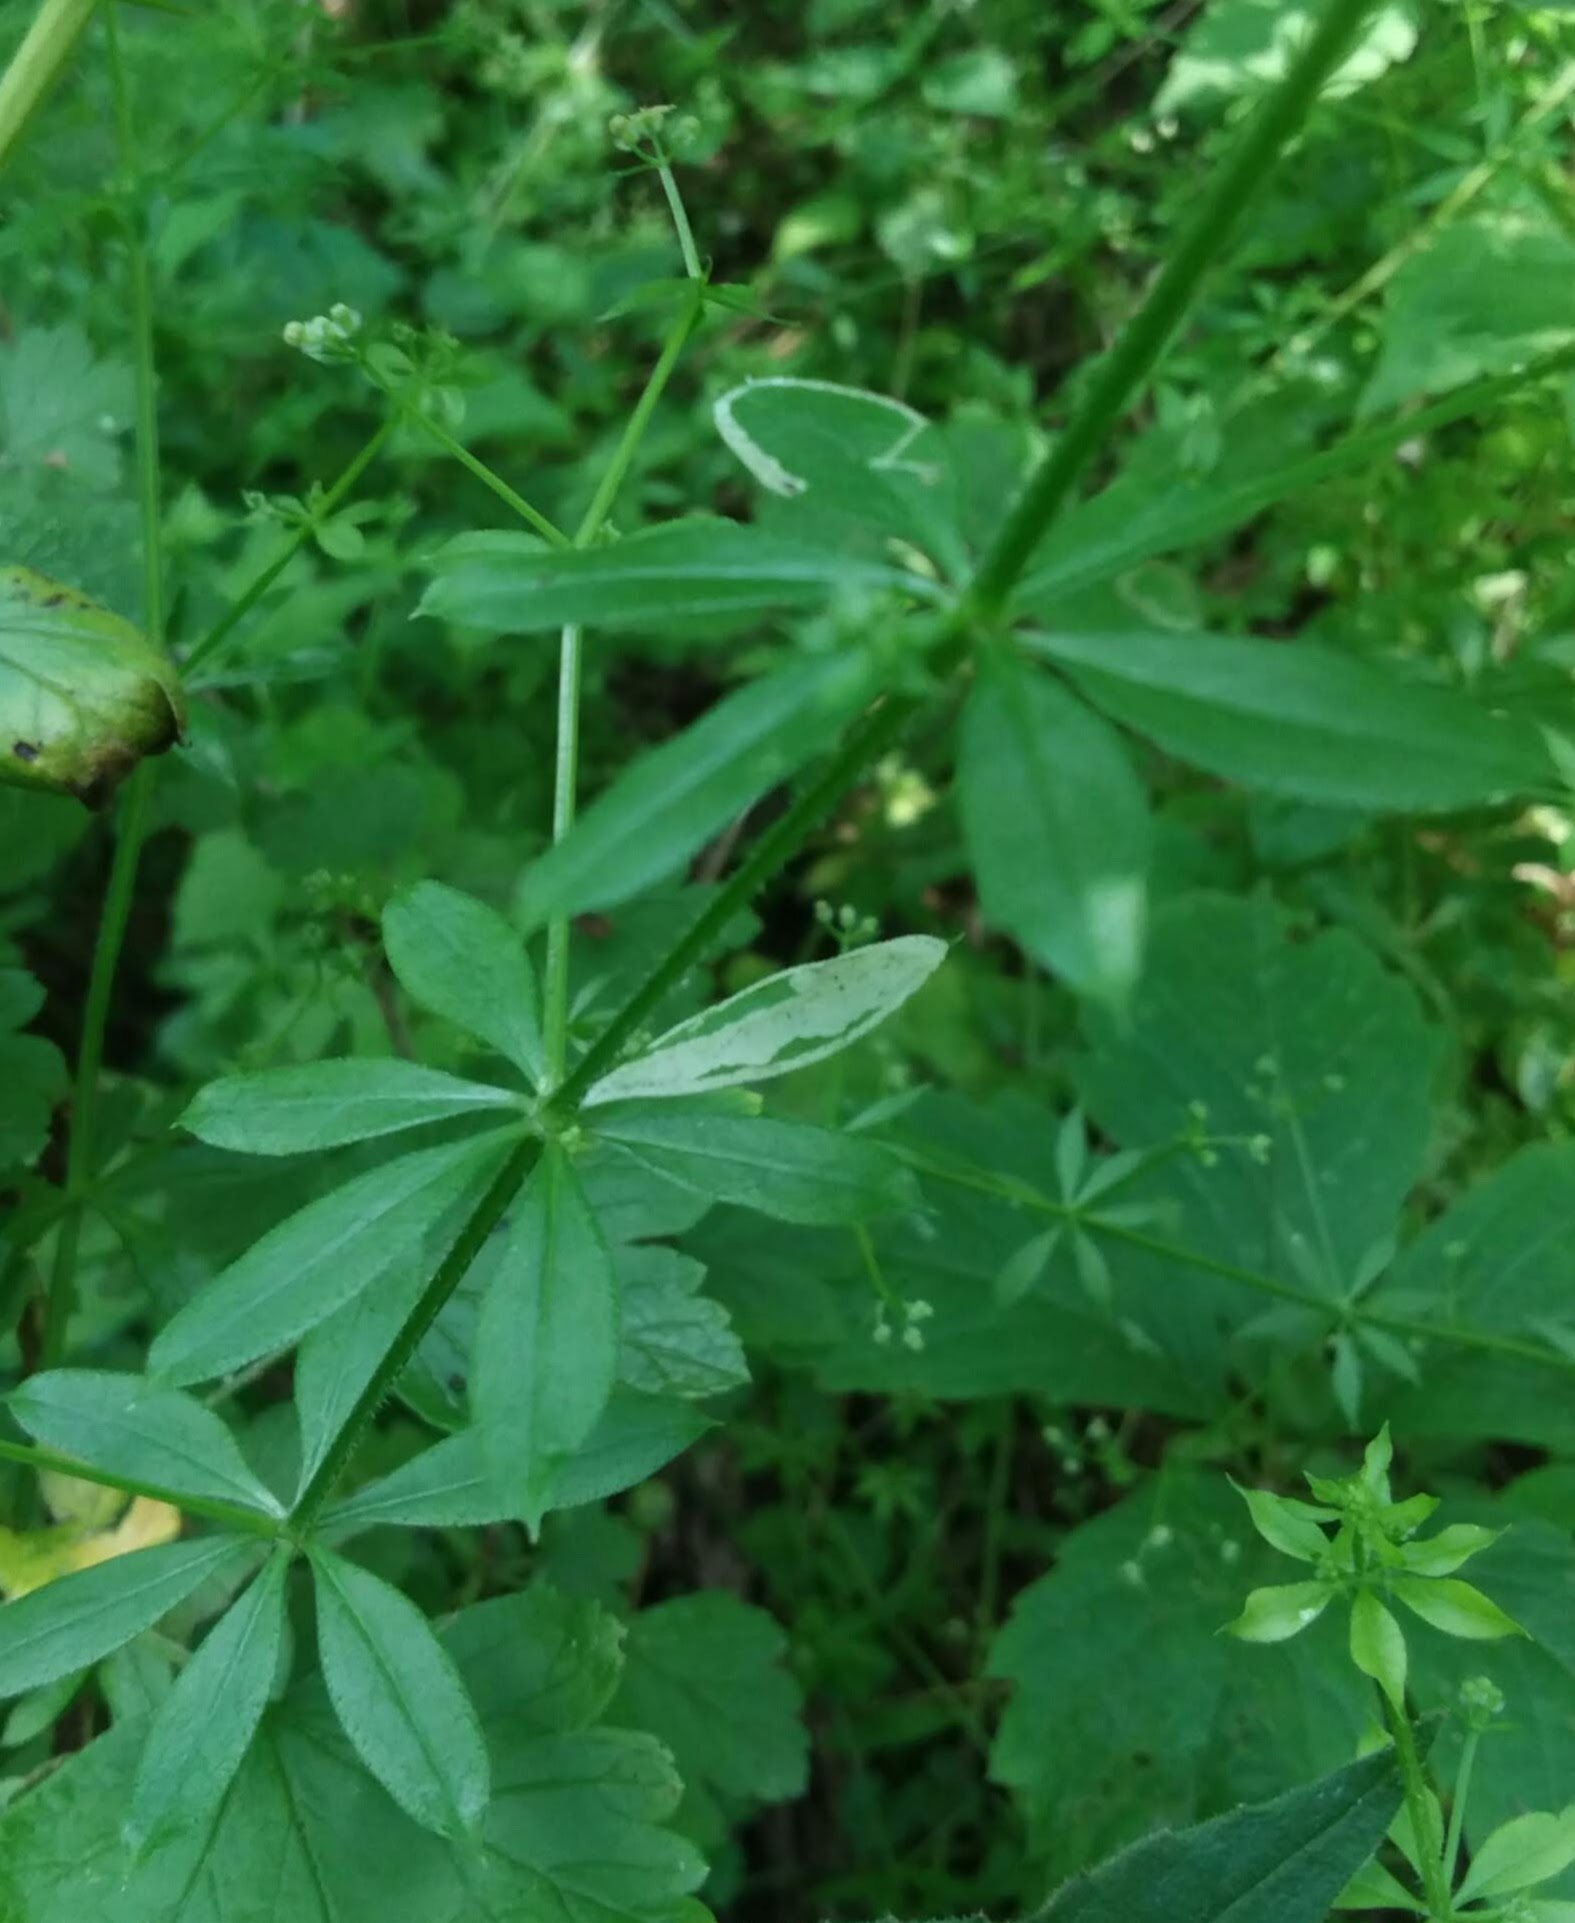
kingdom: Animalia
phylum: Arthropoda
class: Insecta
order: Diptera
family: Agromyzidae
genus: Liriomyza
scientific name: Liriomyza galiivora
